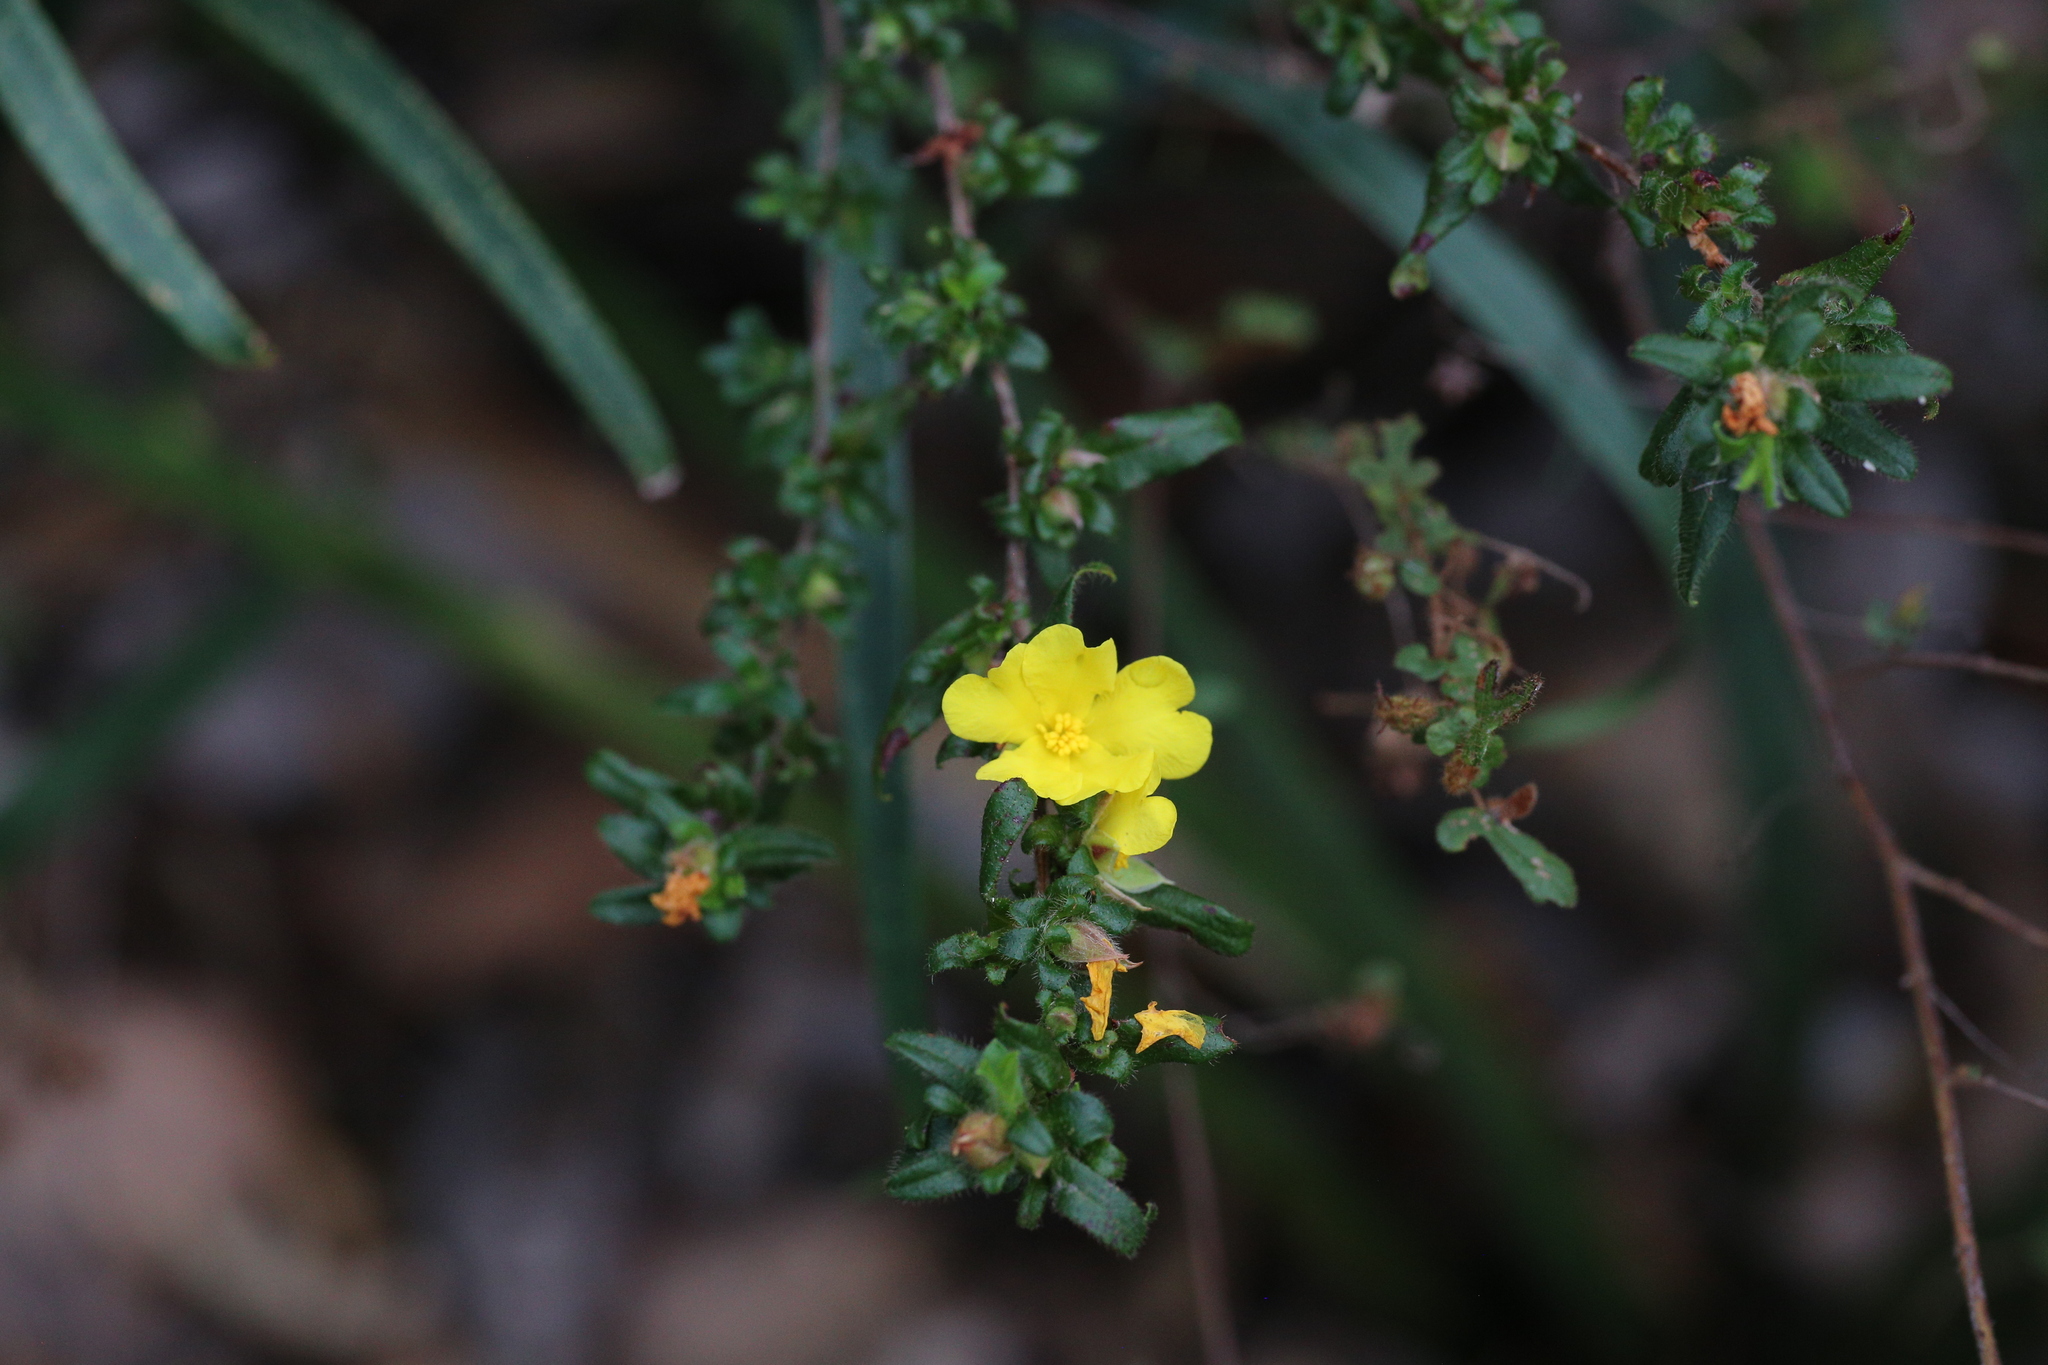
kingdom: Plantae
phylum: Tracheophyta
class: Magnoliopsida
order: Dilleniales
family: Dilleniaceae
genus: Hibbertia
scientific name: Hibbertia pilosa
